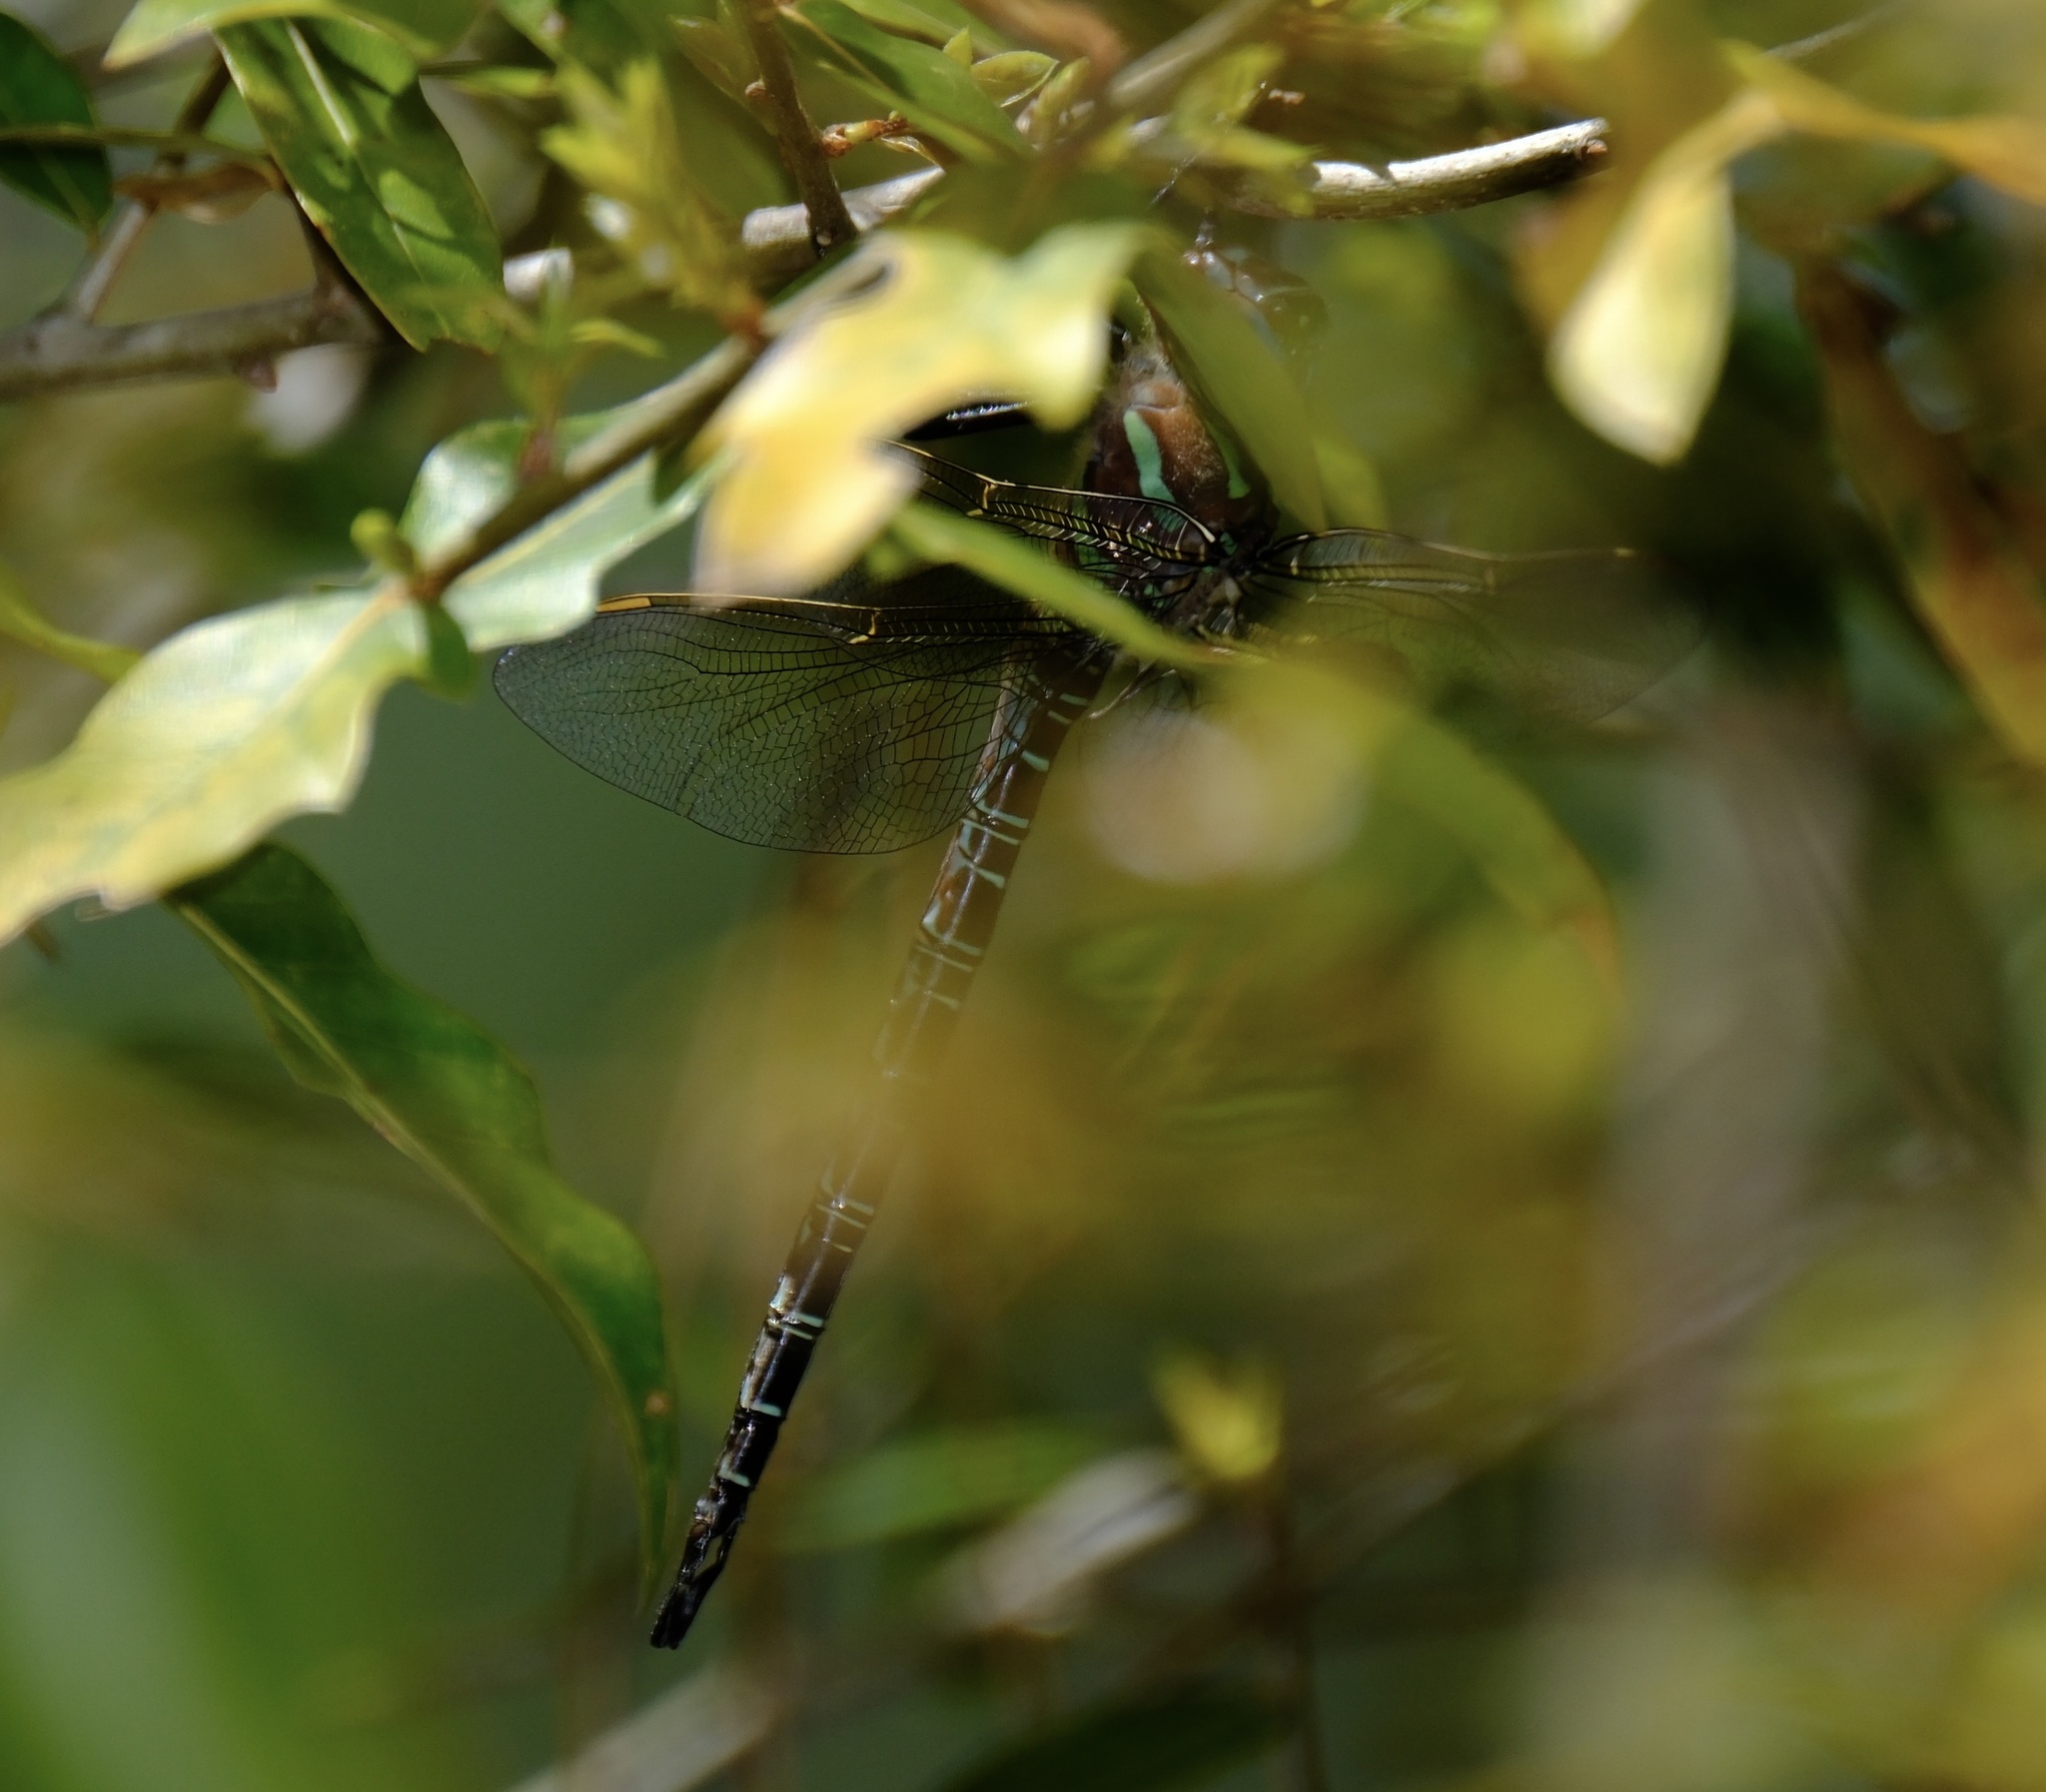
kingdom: Animalia
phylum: Arthropoda
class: Insecta
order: Odonata
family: Aeshnidae
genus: Epiaeschna
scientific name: Epiaeschna heros
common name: Swamp darner
